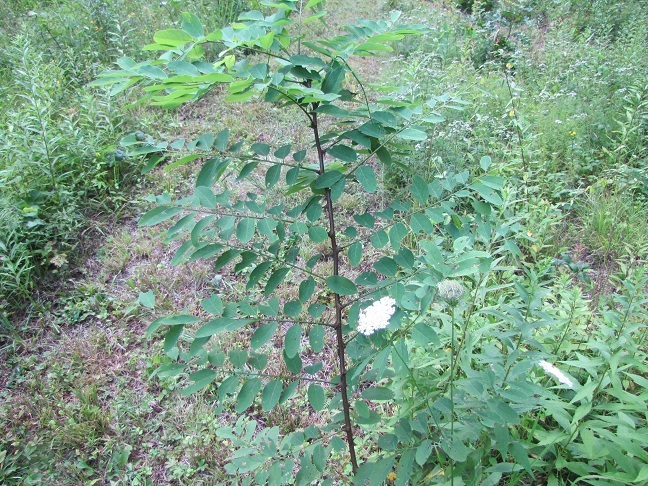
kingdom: Plantae
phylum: Tracheophyta
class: Magnoliopsida
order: Fabales
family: Fabaceae
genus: Robinia
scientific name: Robinia pseudoacacia
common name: Black locust
